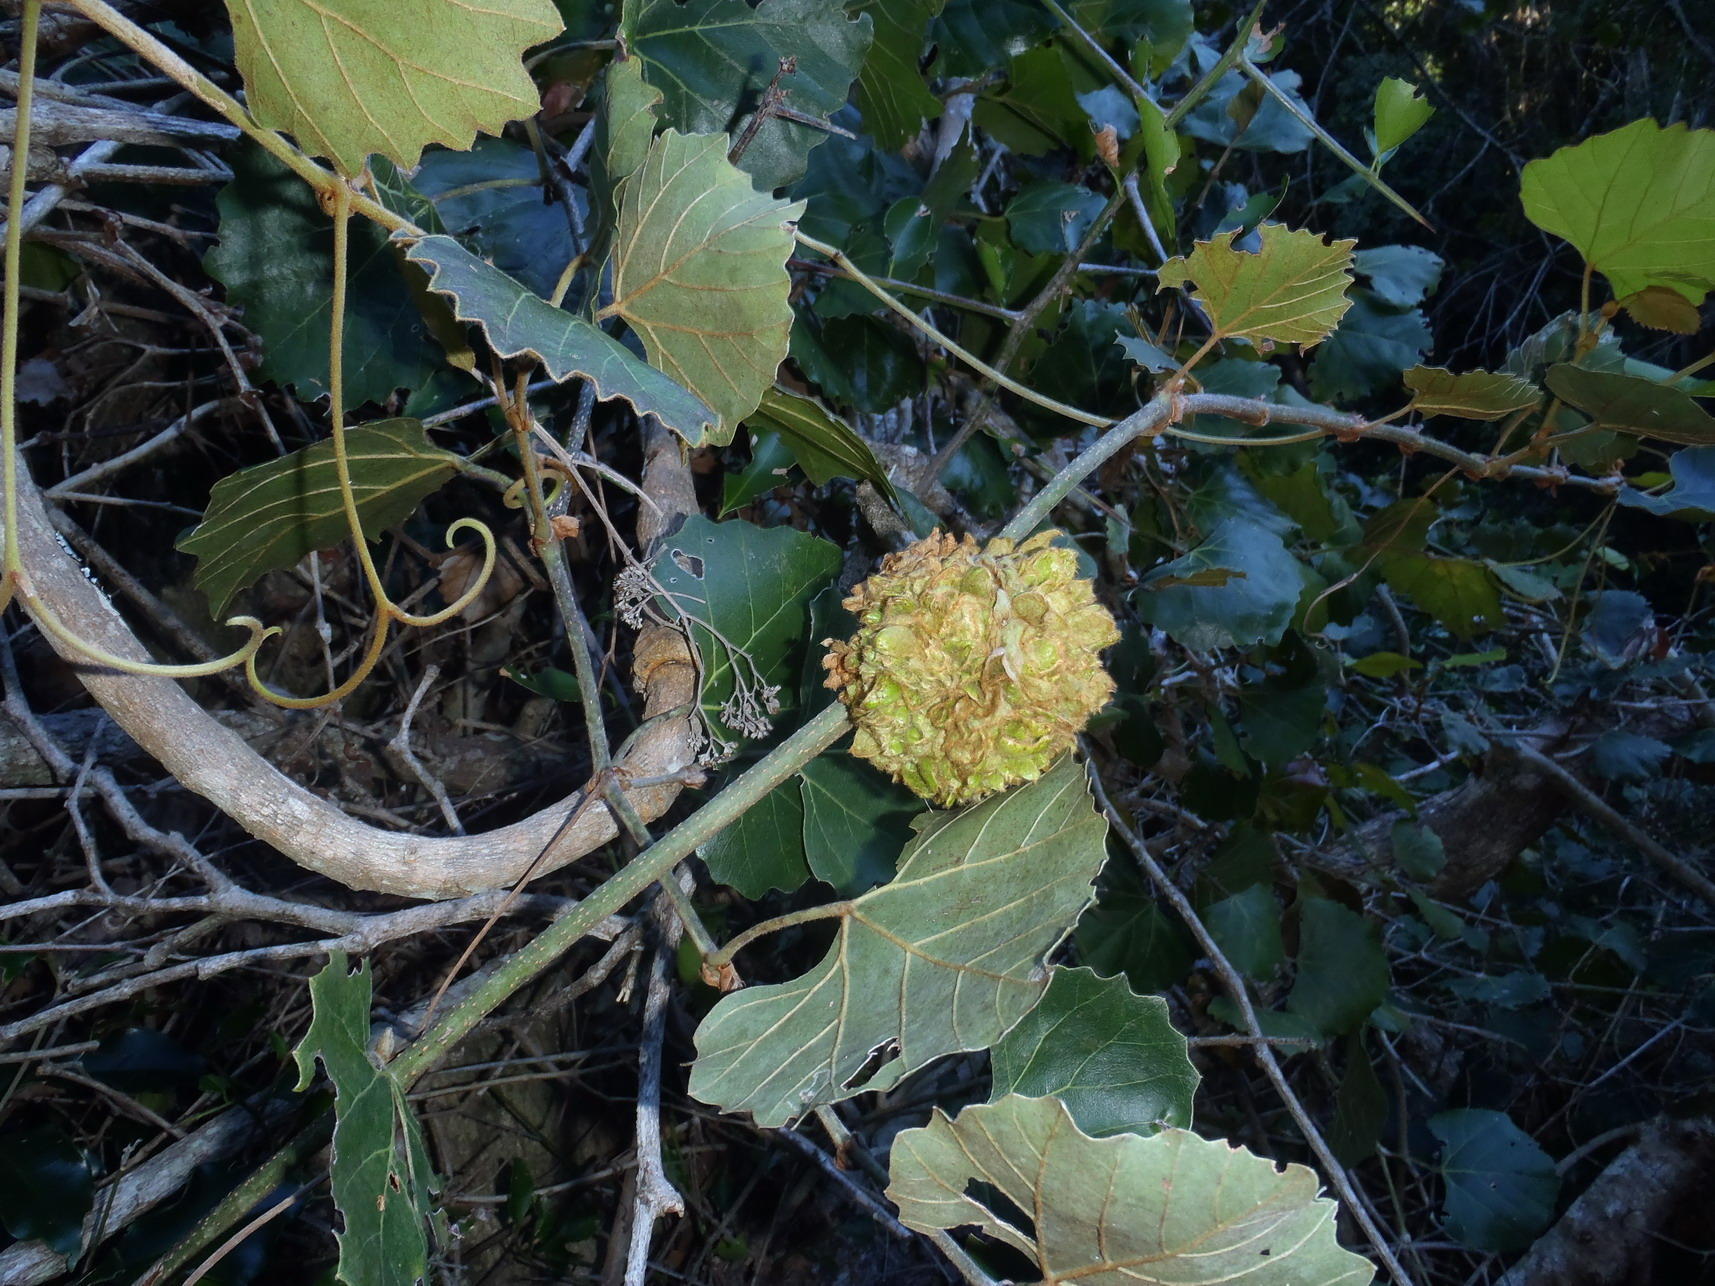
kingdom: Plantae
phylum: Tracheophyta
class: Magnoliopsida
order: Vitales
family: Vitaceae
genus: Rhoicissus
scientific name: Rhoicissus tomentosa
